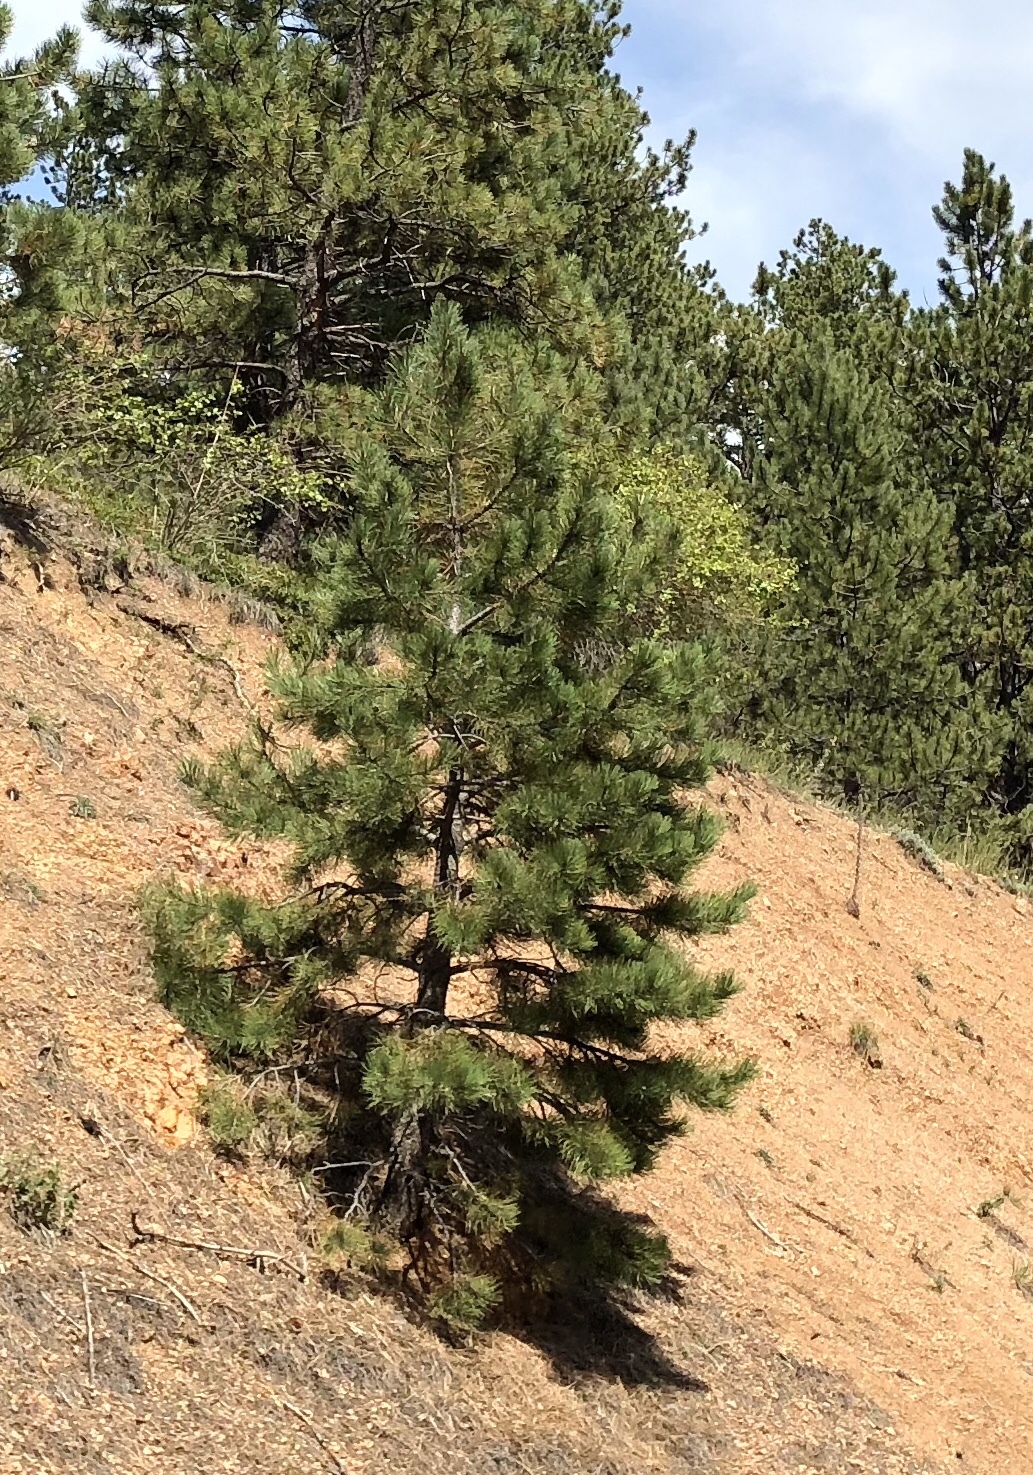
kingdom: Plantae
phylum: Tracheophyta
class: Pinopsida
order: Pinales
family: Pinaceae
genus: Pinus
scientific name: Pinus ponderosa
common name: Western yellow-pine
